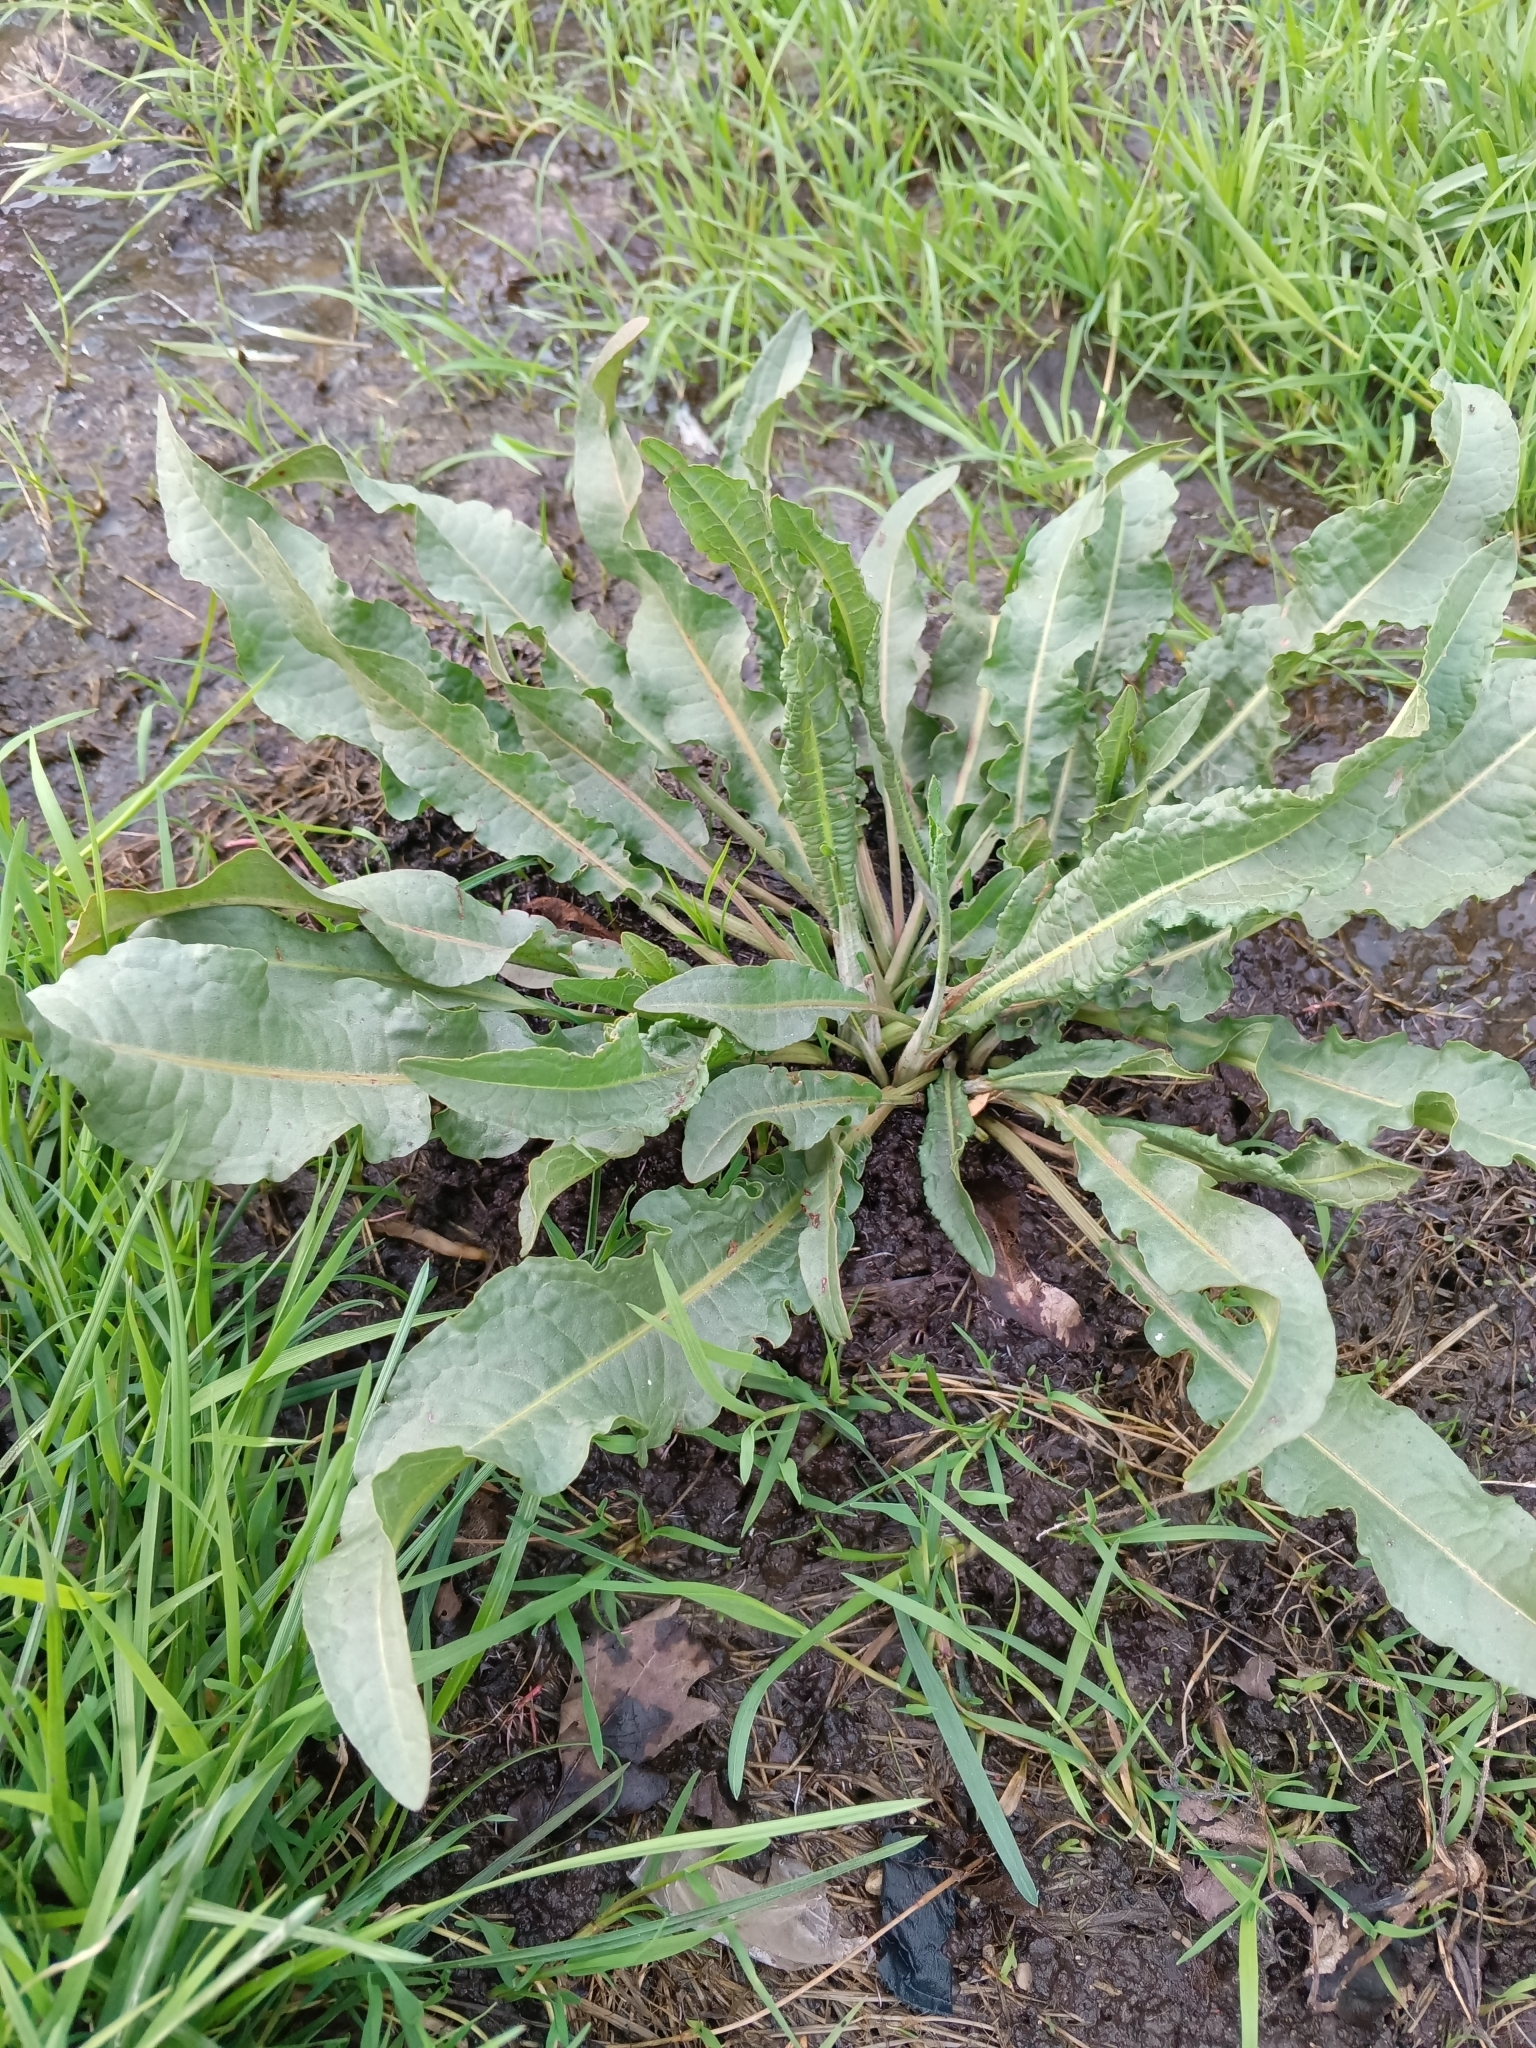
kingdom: Plantae
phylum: Tracheophyta
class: Magnoliopsida
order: Caryophyllales
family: Polygonaceae
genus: Rumex
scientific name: Rumex crispus
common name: Curled dock
